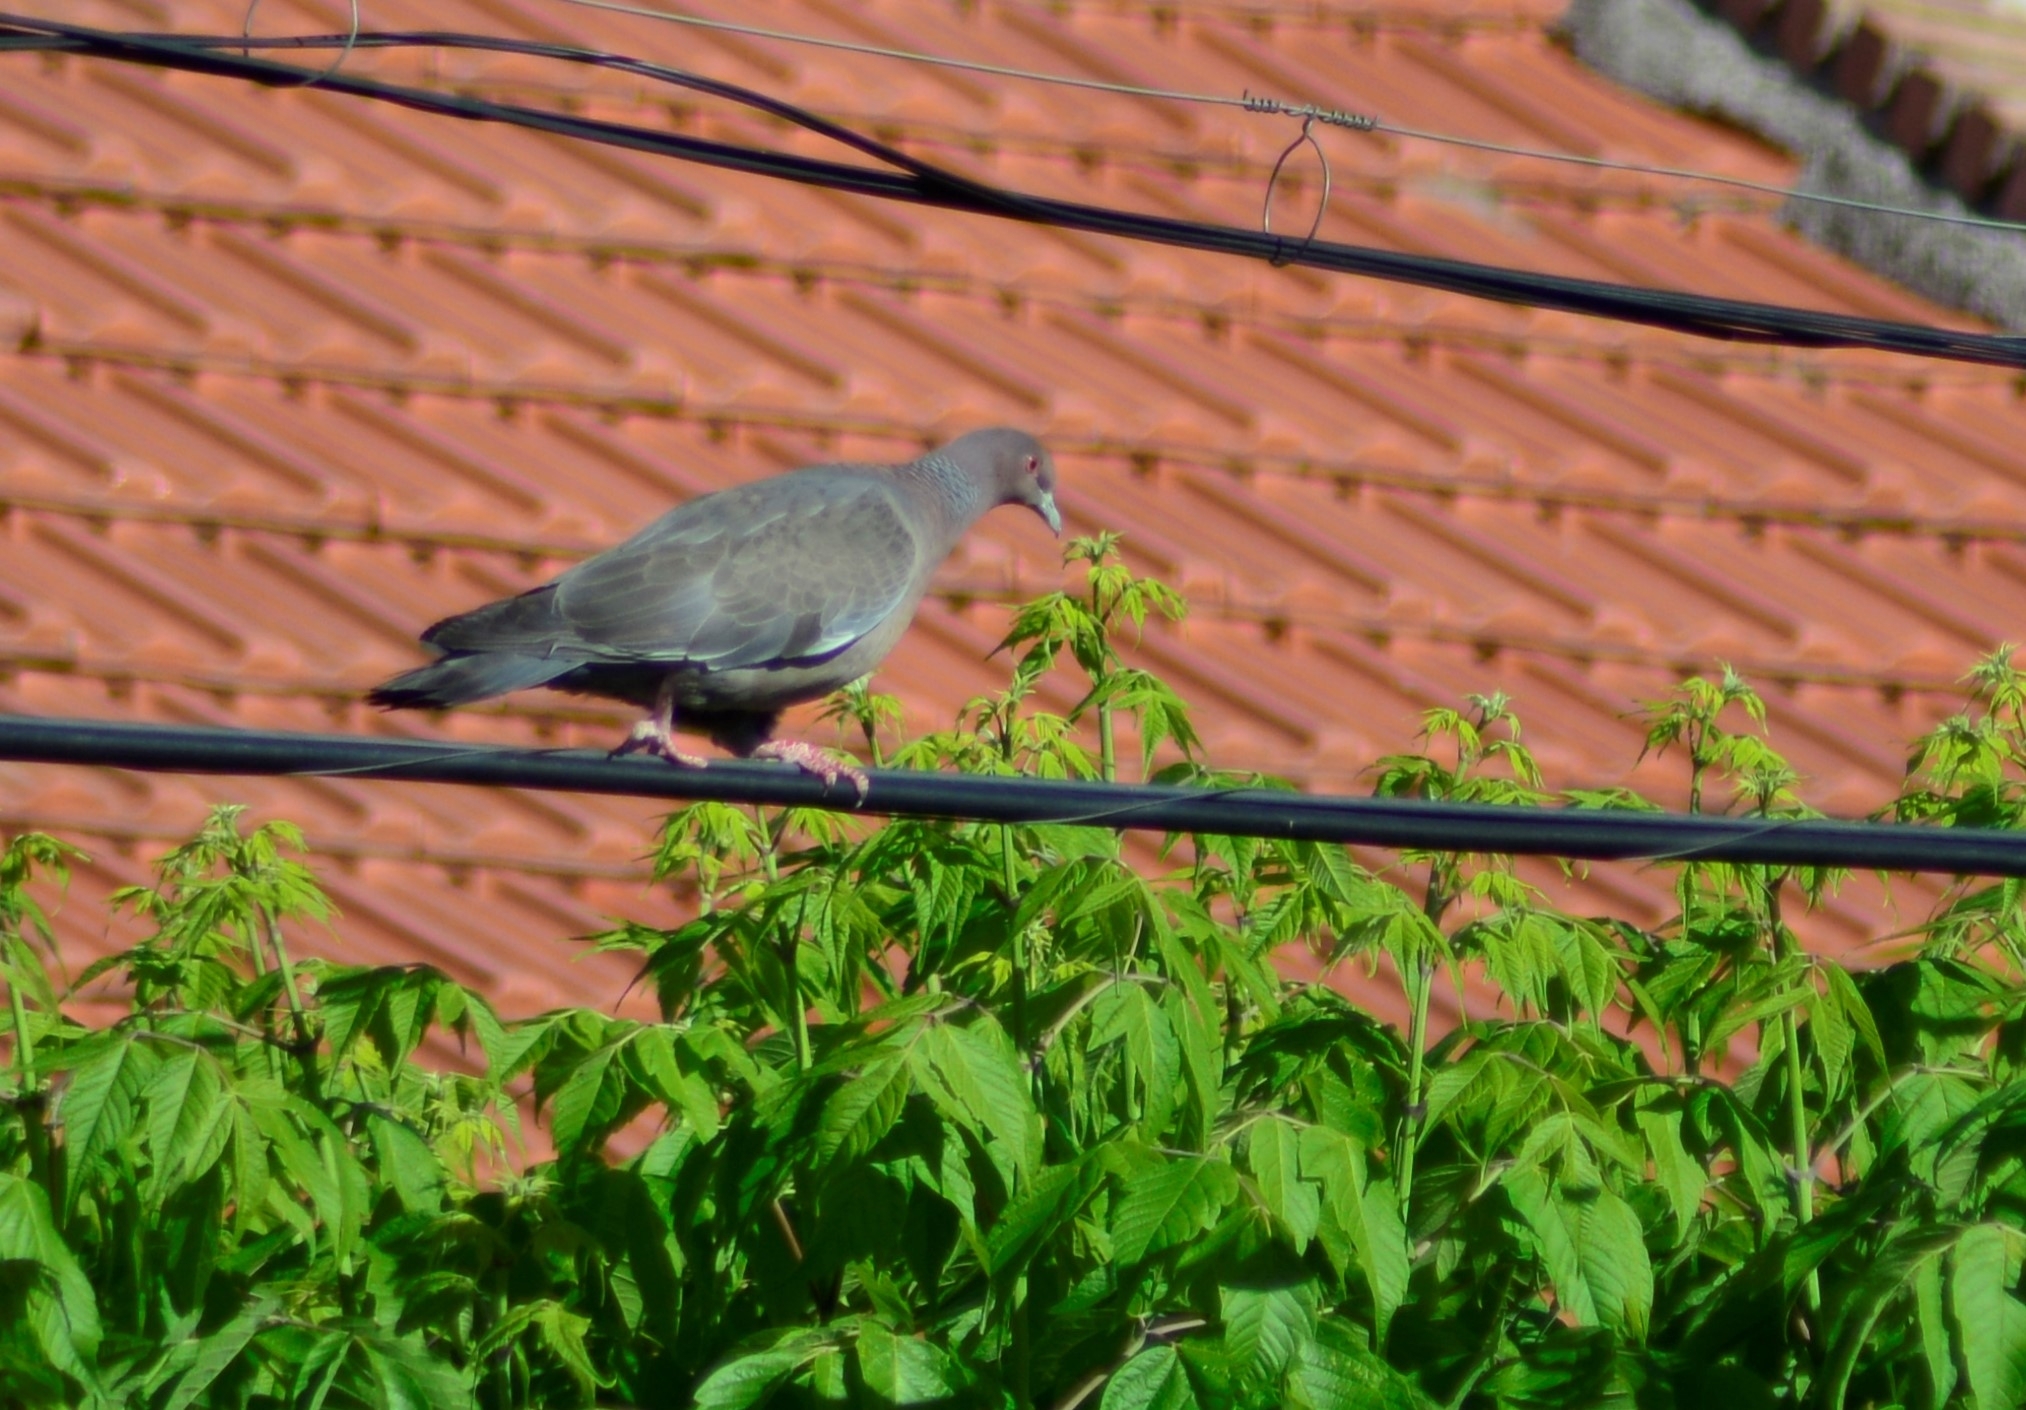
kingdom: Animalia
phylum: Chordata
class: Aves
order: Columbiformes
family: Columbidae
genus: Patagioenas
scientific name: Patagioenas picazuro
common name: Picazuro pigeon
